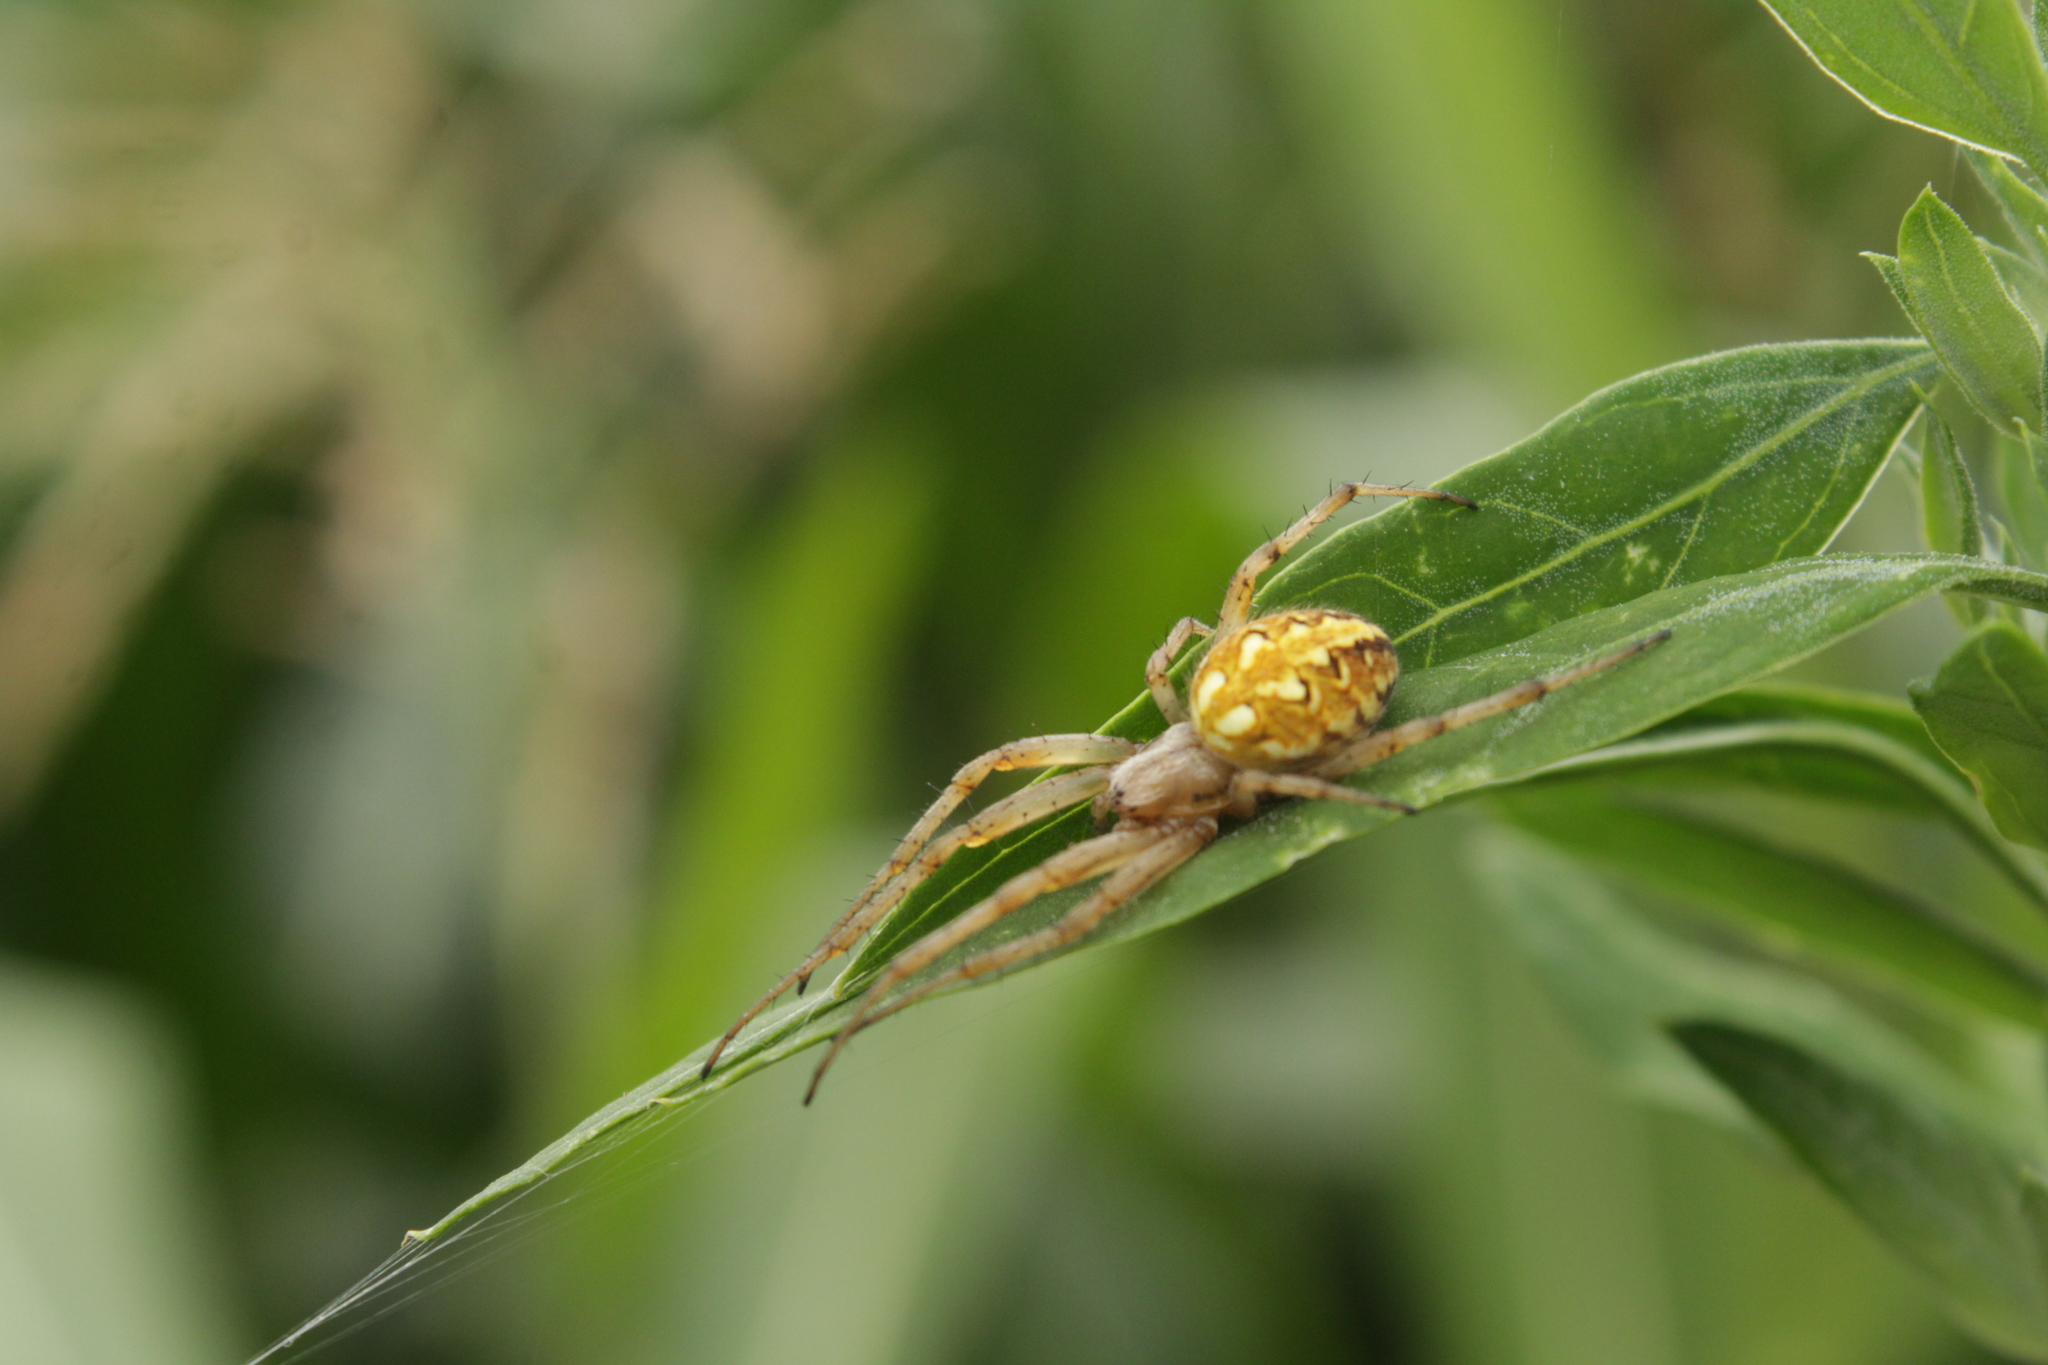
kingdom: Animalia
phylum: Arthropoda
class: Arachnida
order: Araneae
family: Araneidae
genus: Neoscona
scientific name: Neoscona adianta
